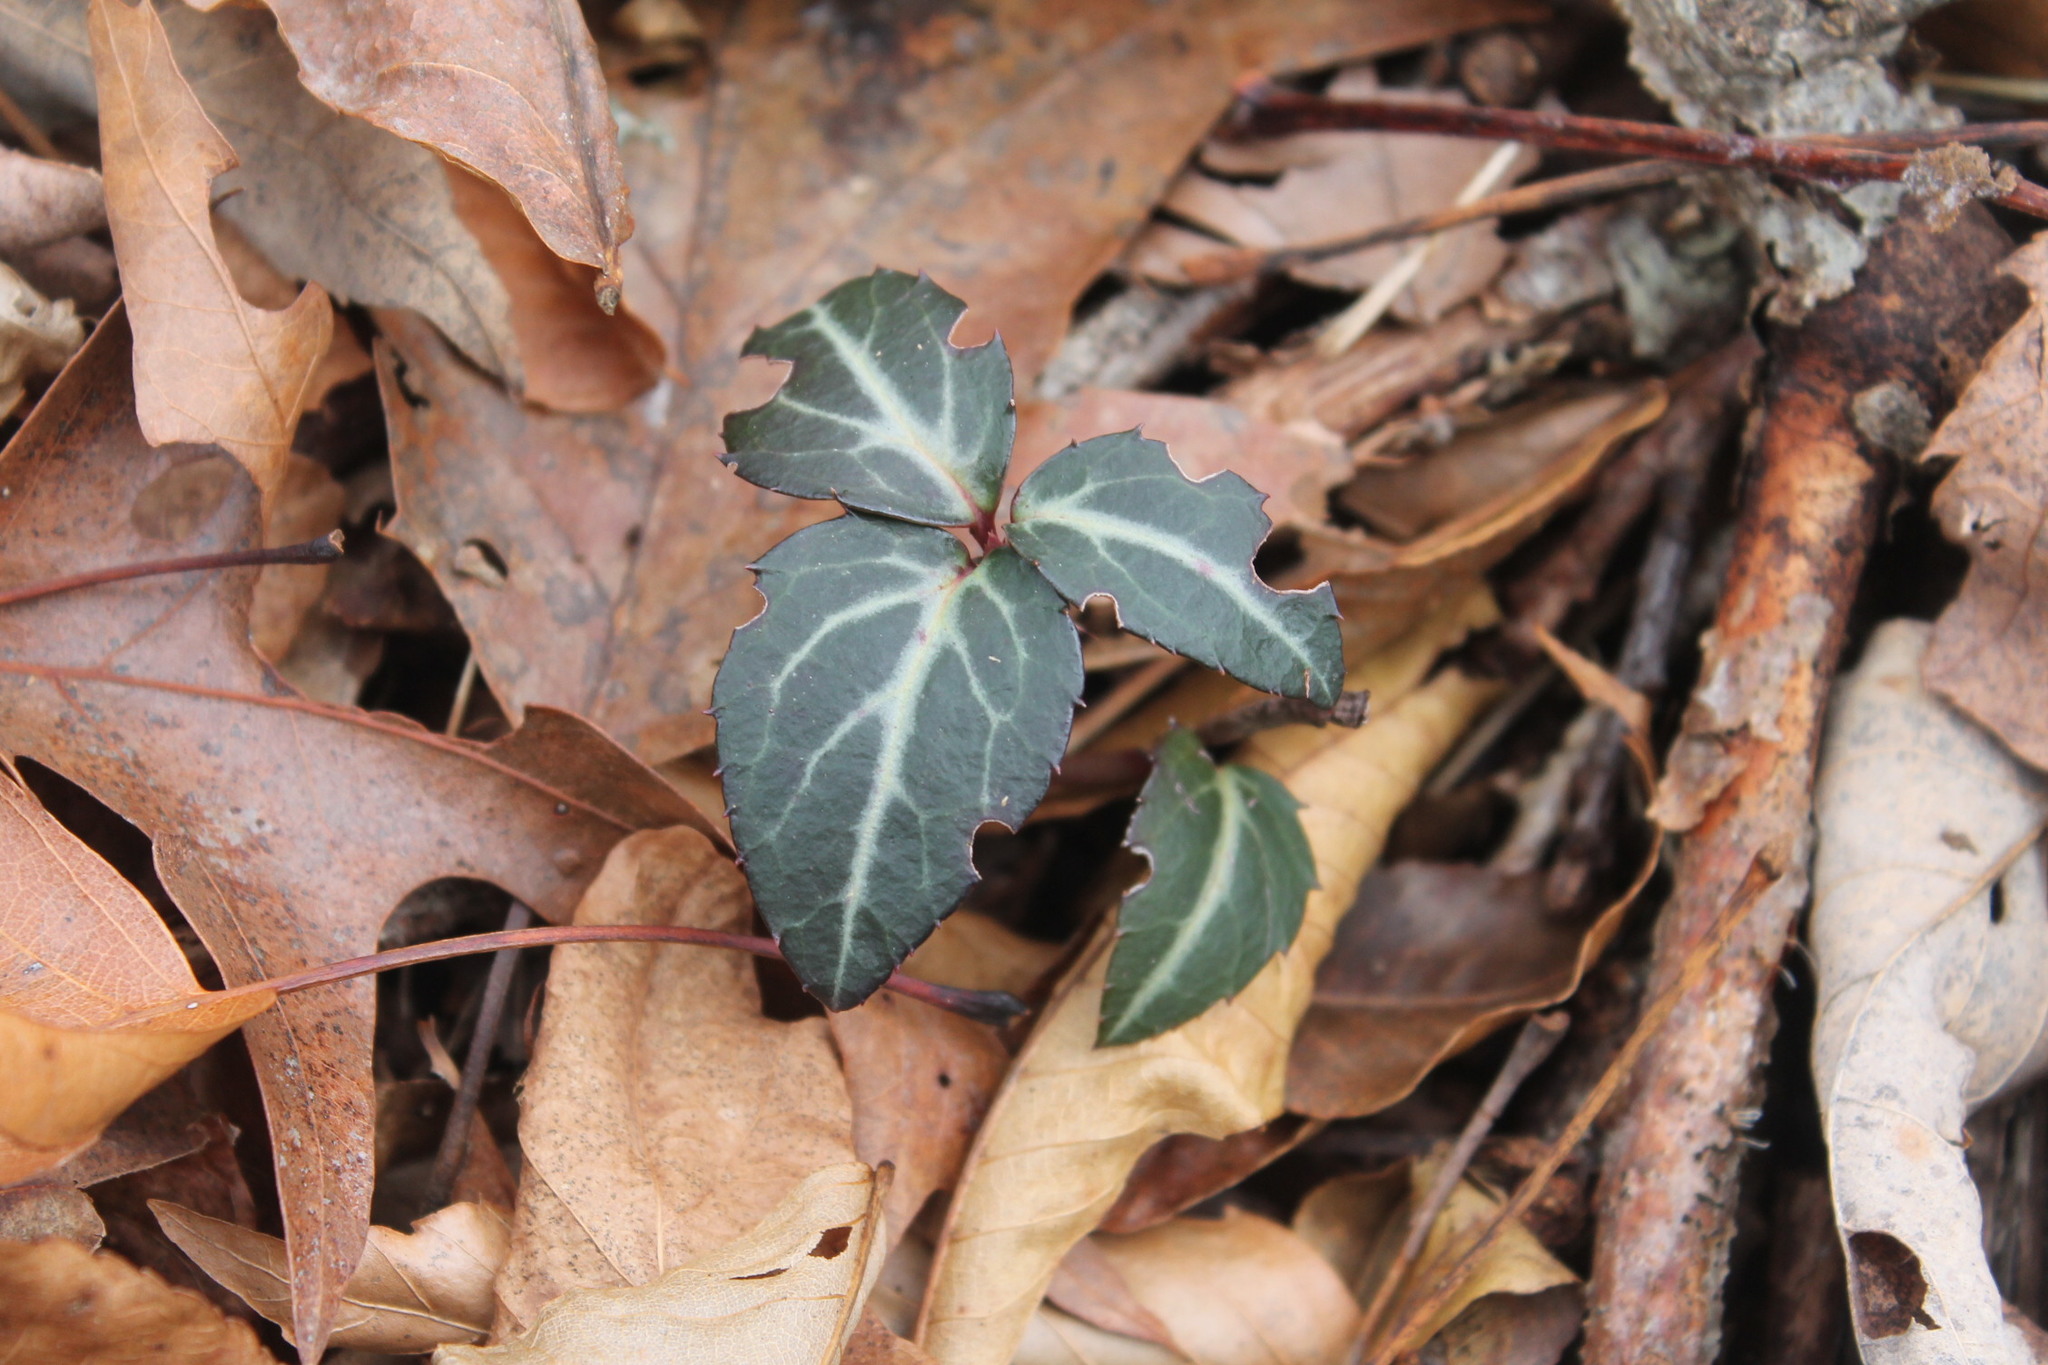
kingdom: Plantae
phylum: Tracheophyta
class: Magnoliopsida
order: Ericales
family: Ericaceae
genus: Chimaphila
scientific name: Chimaphila maculata
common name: Spotted pipsissewa
